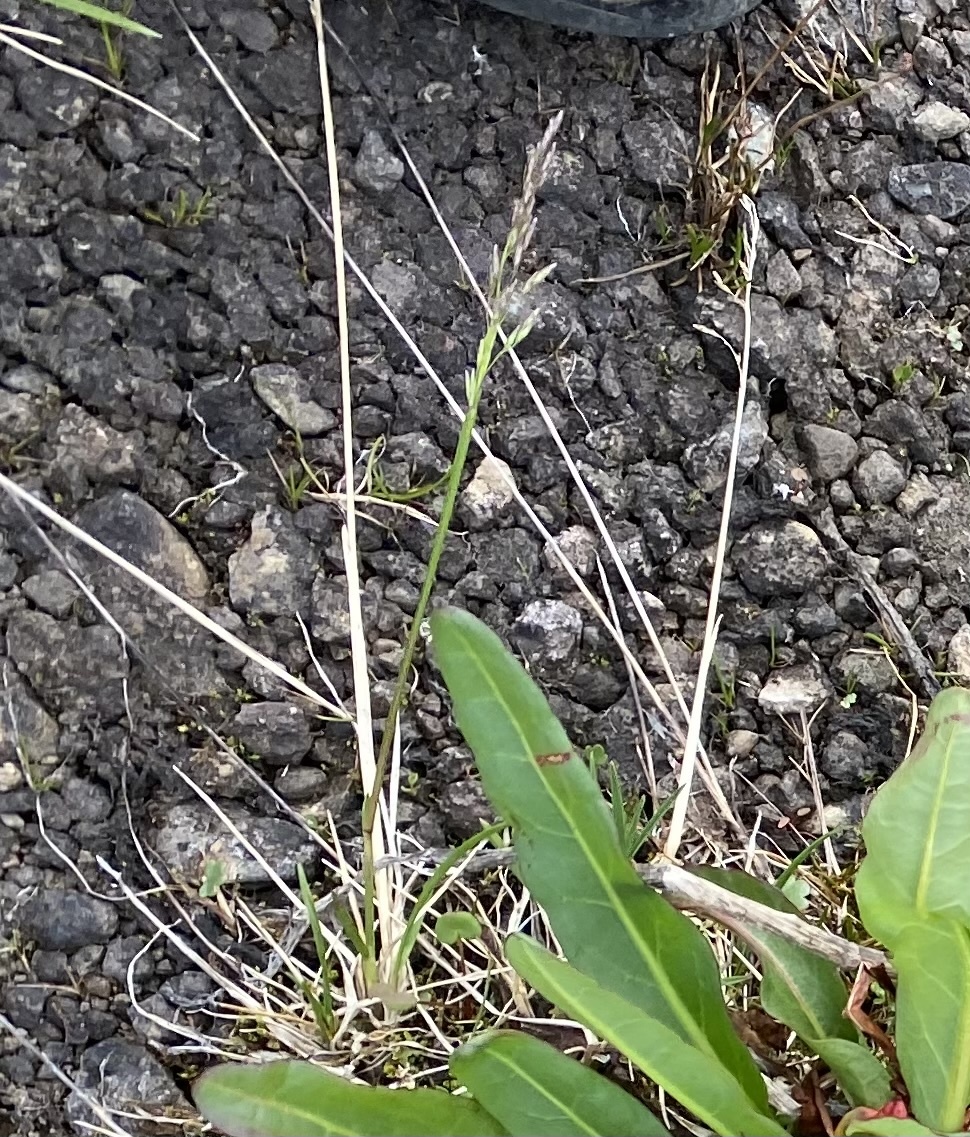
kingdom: Plantae
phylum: Tracheophyta
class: Liliopsida
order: Poales
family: Poaceae
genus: Deschampsia
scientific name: Deschampsia
